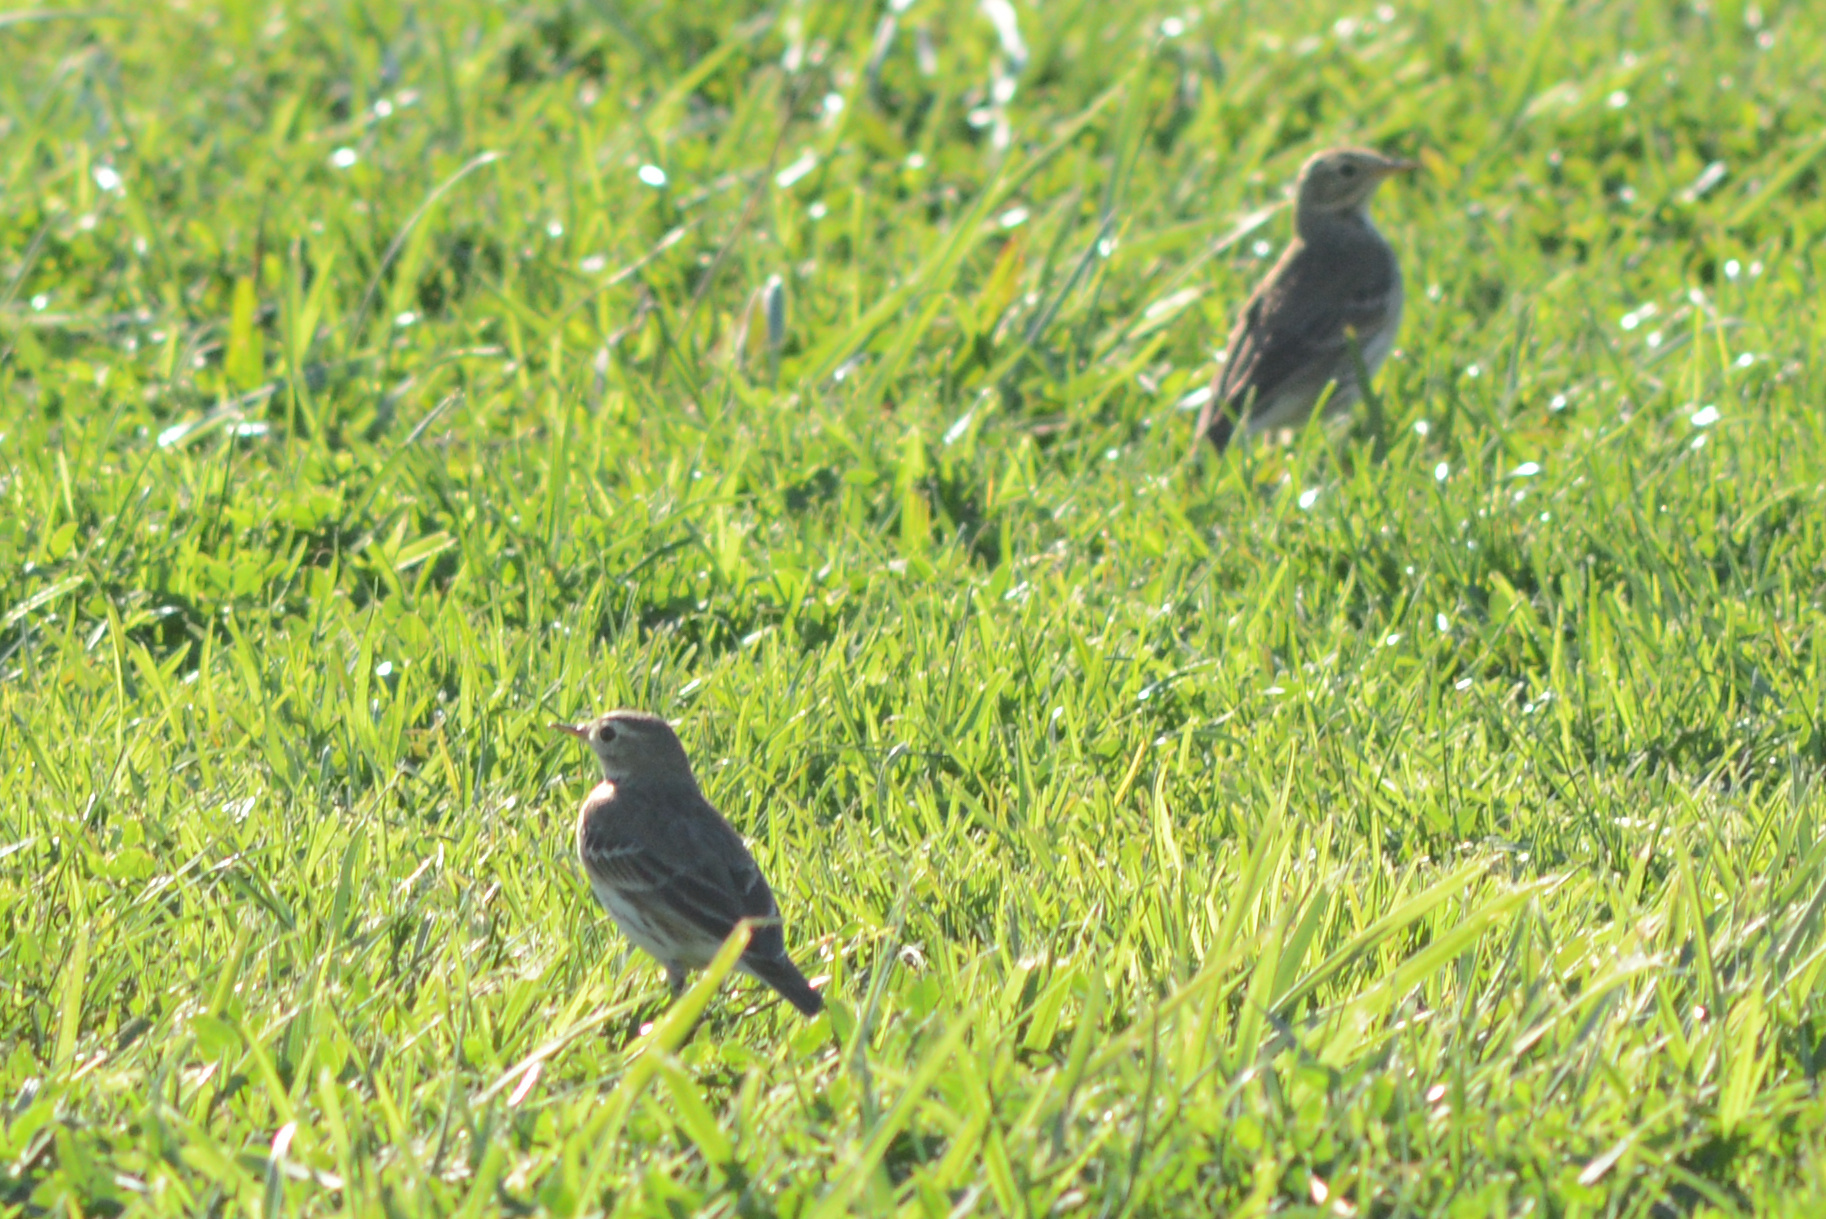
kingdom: Animalia
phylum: Chordata
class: Aves
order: Passeriformes
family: Motacillidae
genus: Anthus
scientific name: Anthus rubescens
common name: Buff-bellied pipit
